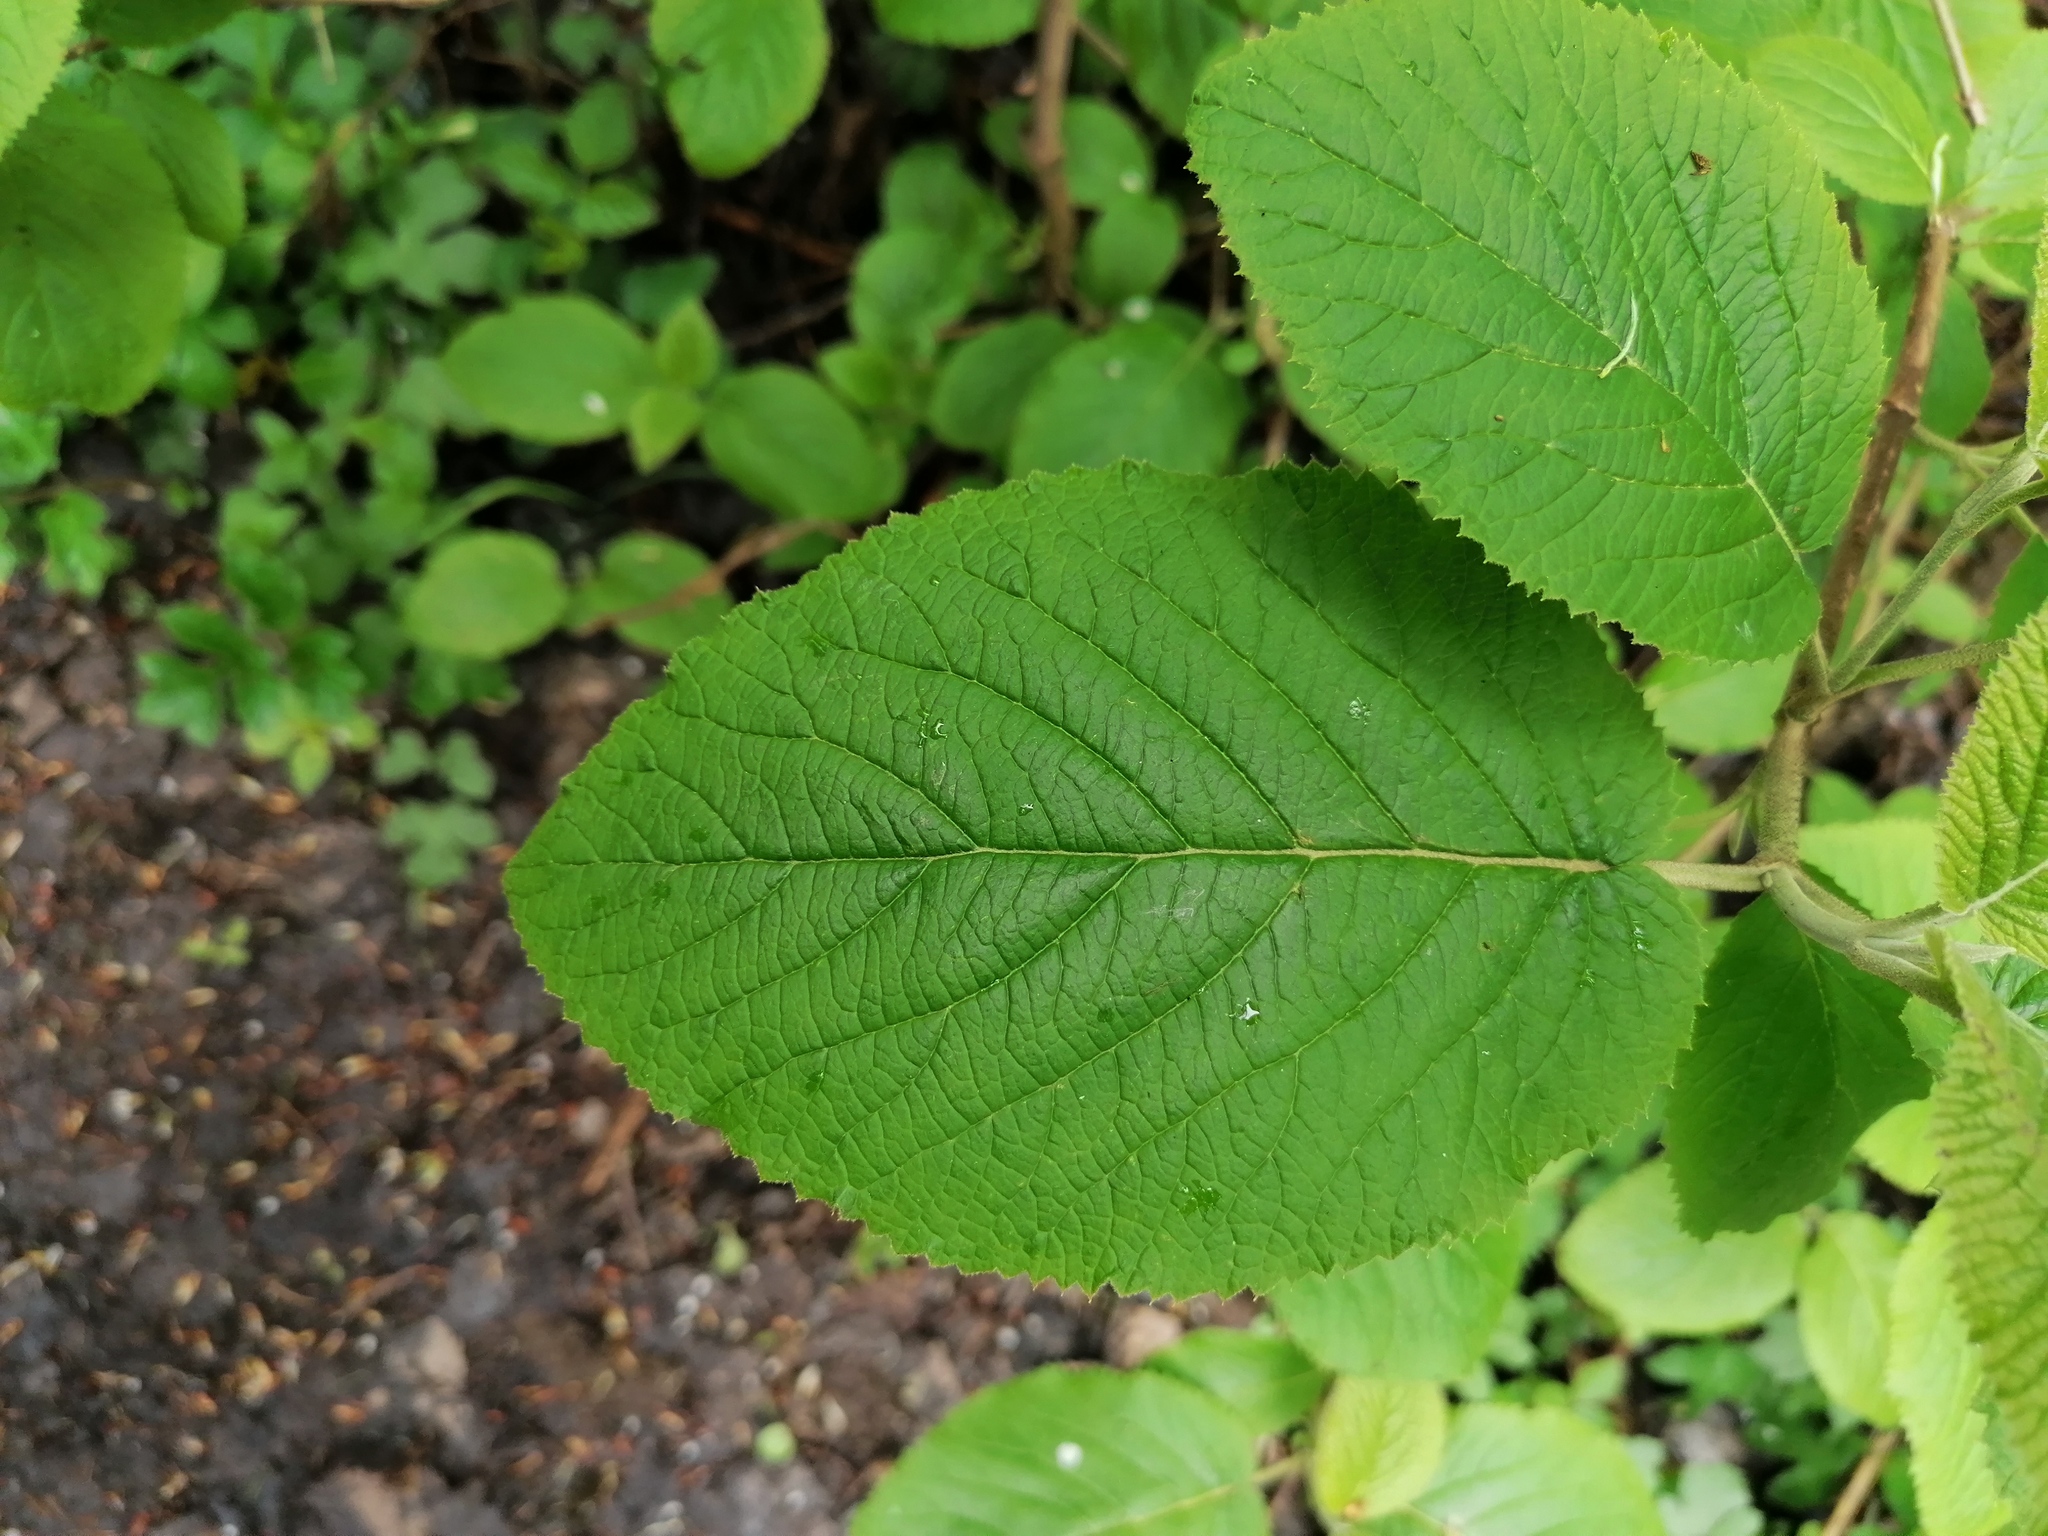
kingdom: Plantae
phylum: Tracheophyta
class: Magnoliopsida
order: Dipsacales
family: Viburnaceae
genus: Viburnum
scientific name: Viburnum lantana
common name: Wayfaring tree
